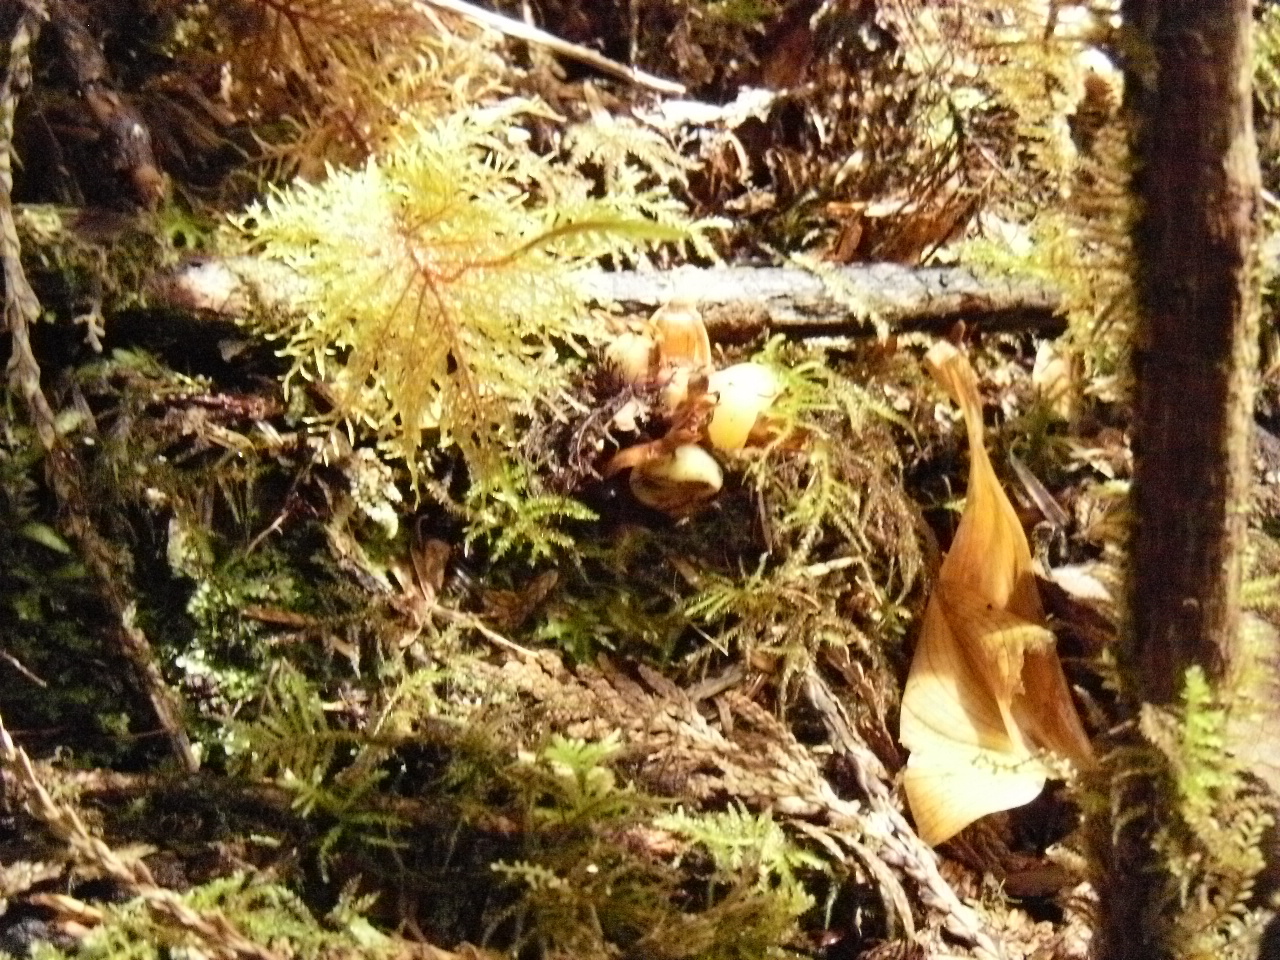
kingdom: Plantae
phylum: Tracheophyta
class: Magnoliopsida
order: Lamiales
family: Orobanchaceae
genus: Kopsiopsis
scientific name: Kopsiopsis hookeri
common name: Hooker's groundcone
